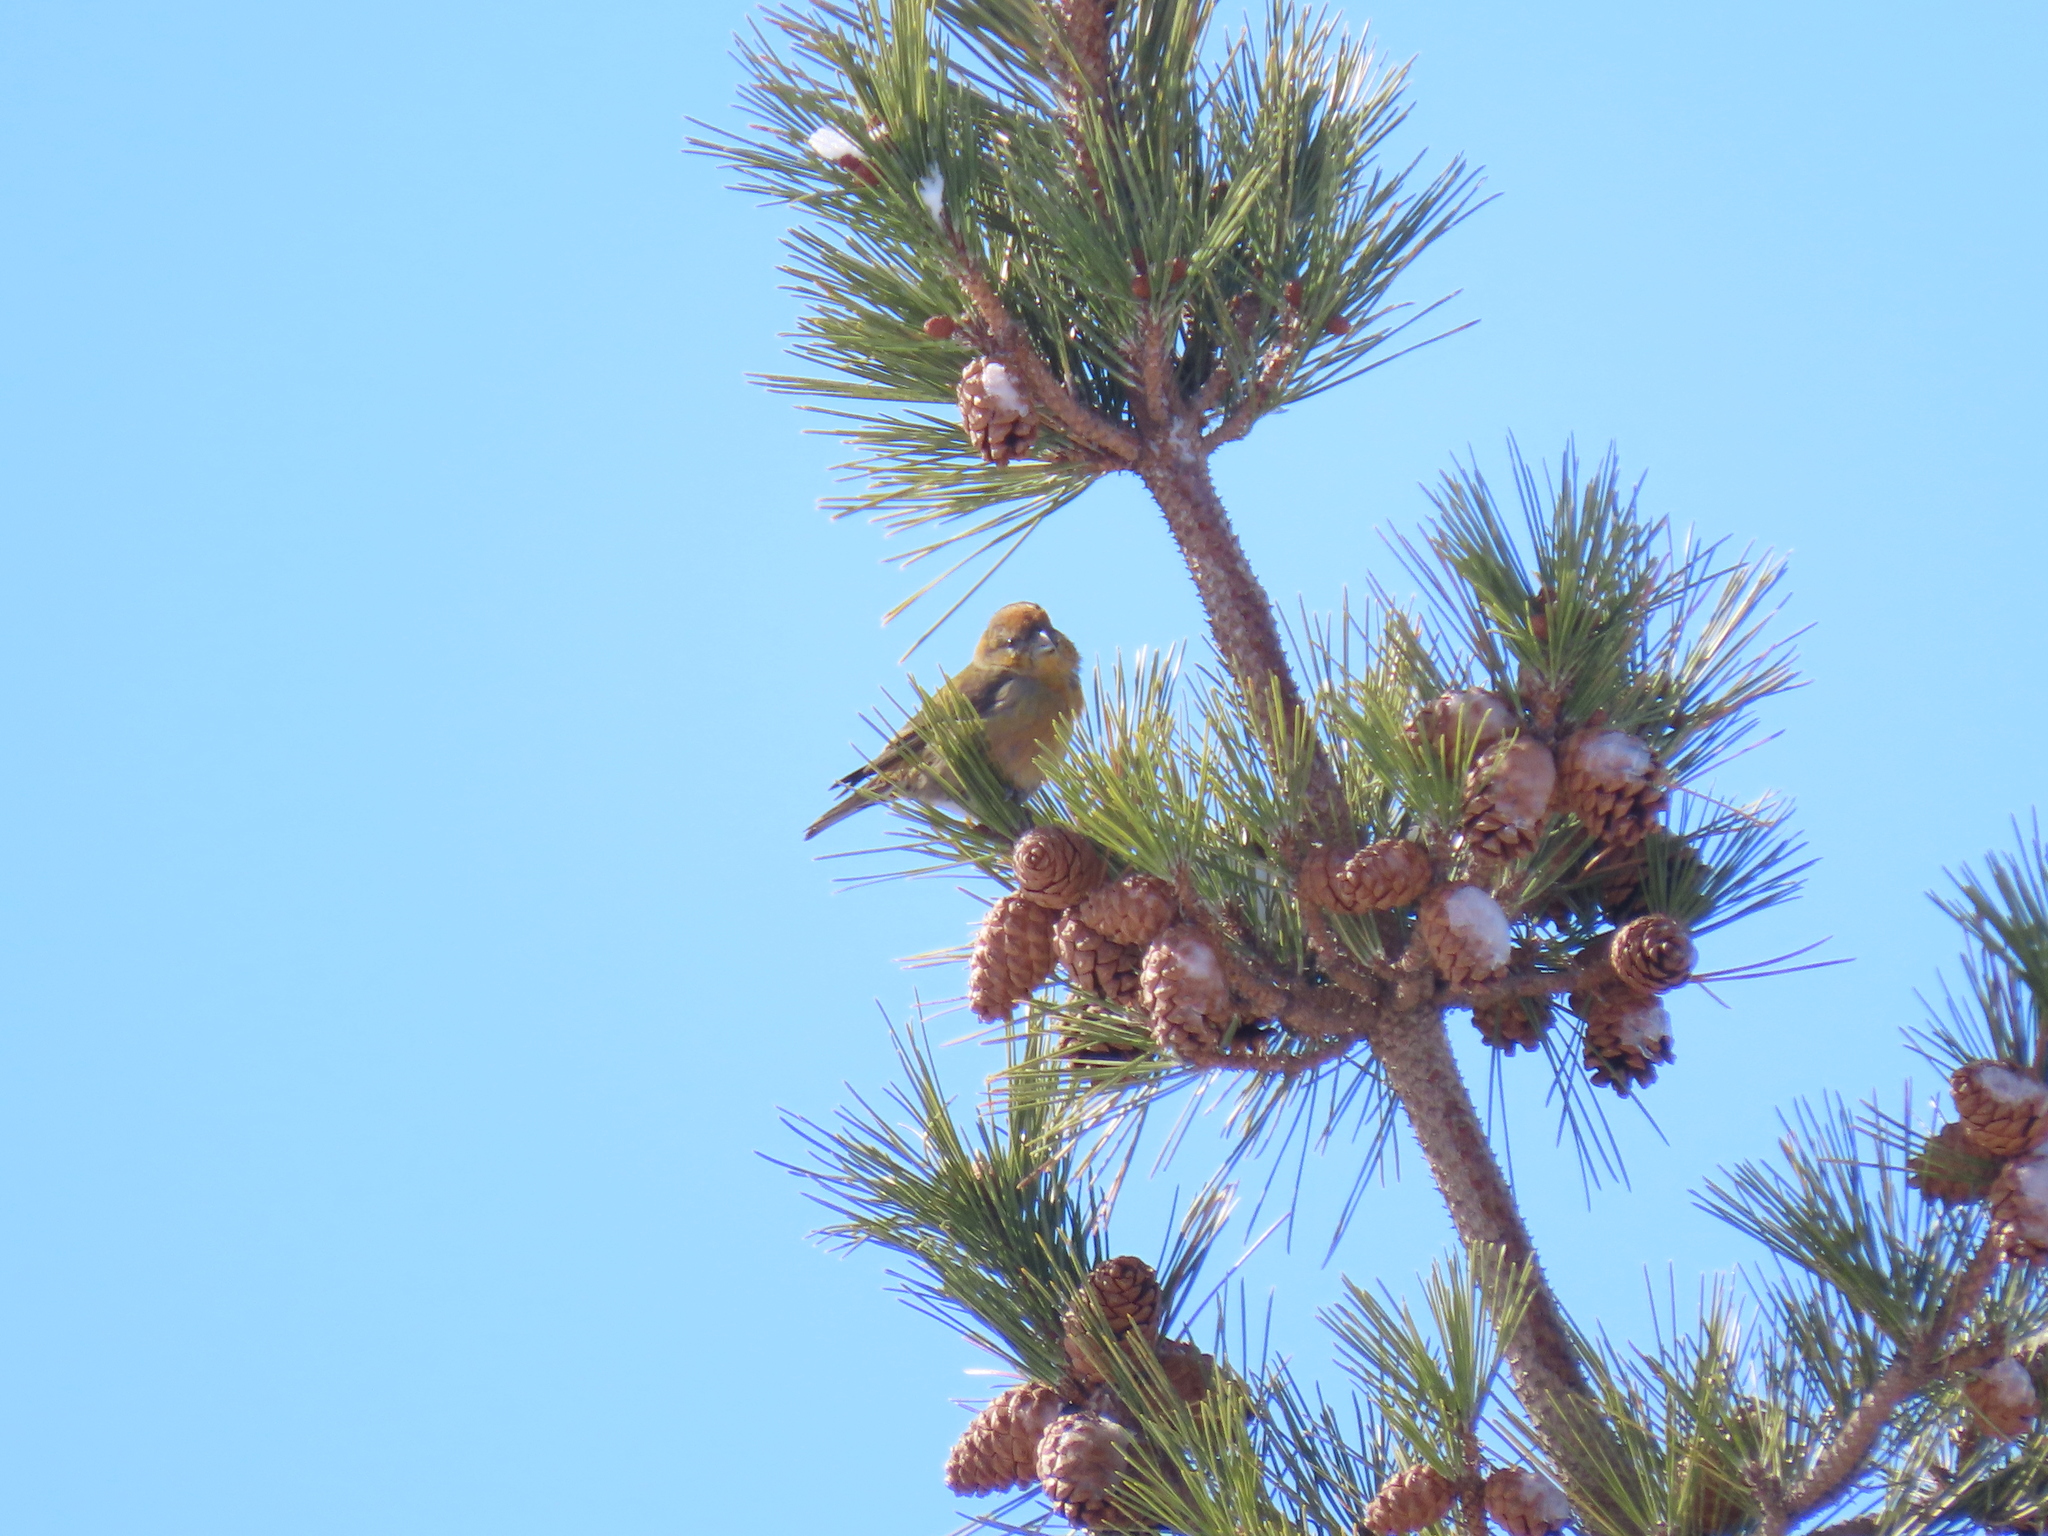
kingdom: Animalia
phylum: Chordata
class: Aves
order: Passeriformes
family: Fringillidae
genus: Loxia
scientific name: Loxia curvirostra
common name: Red crossbill
